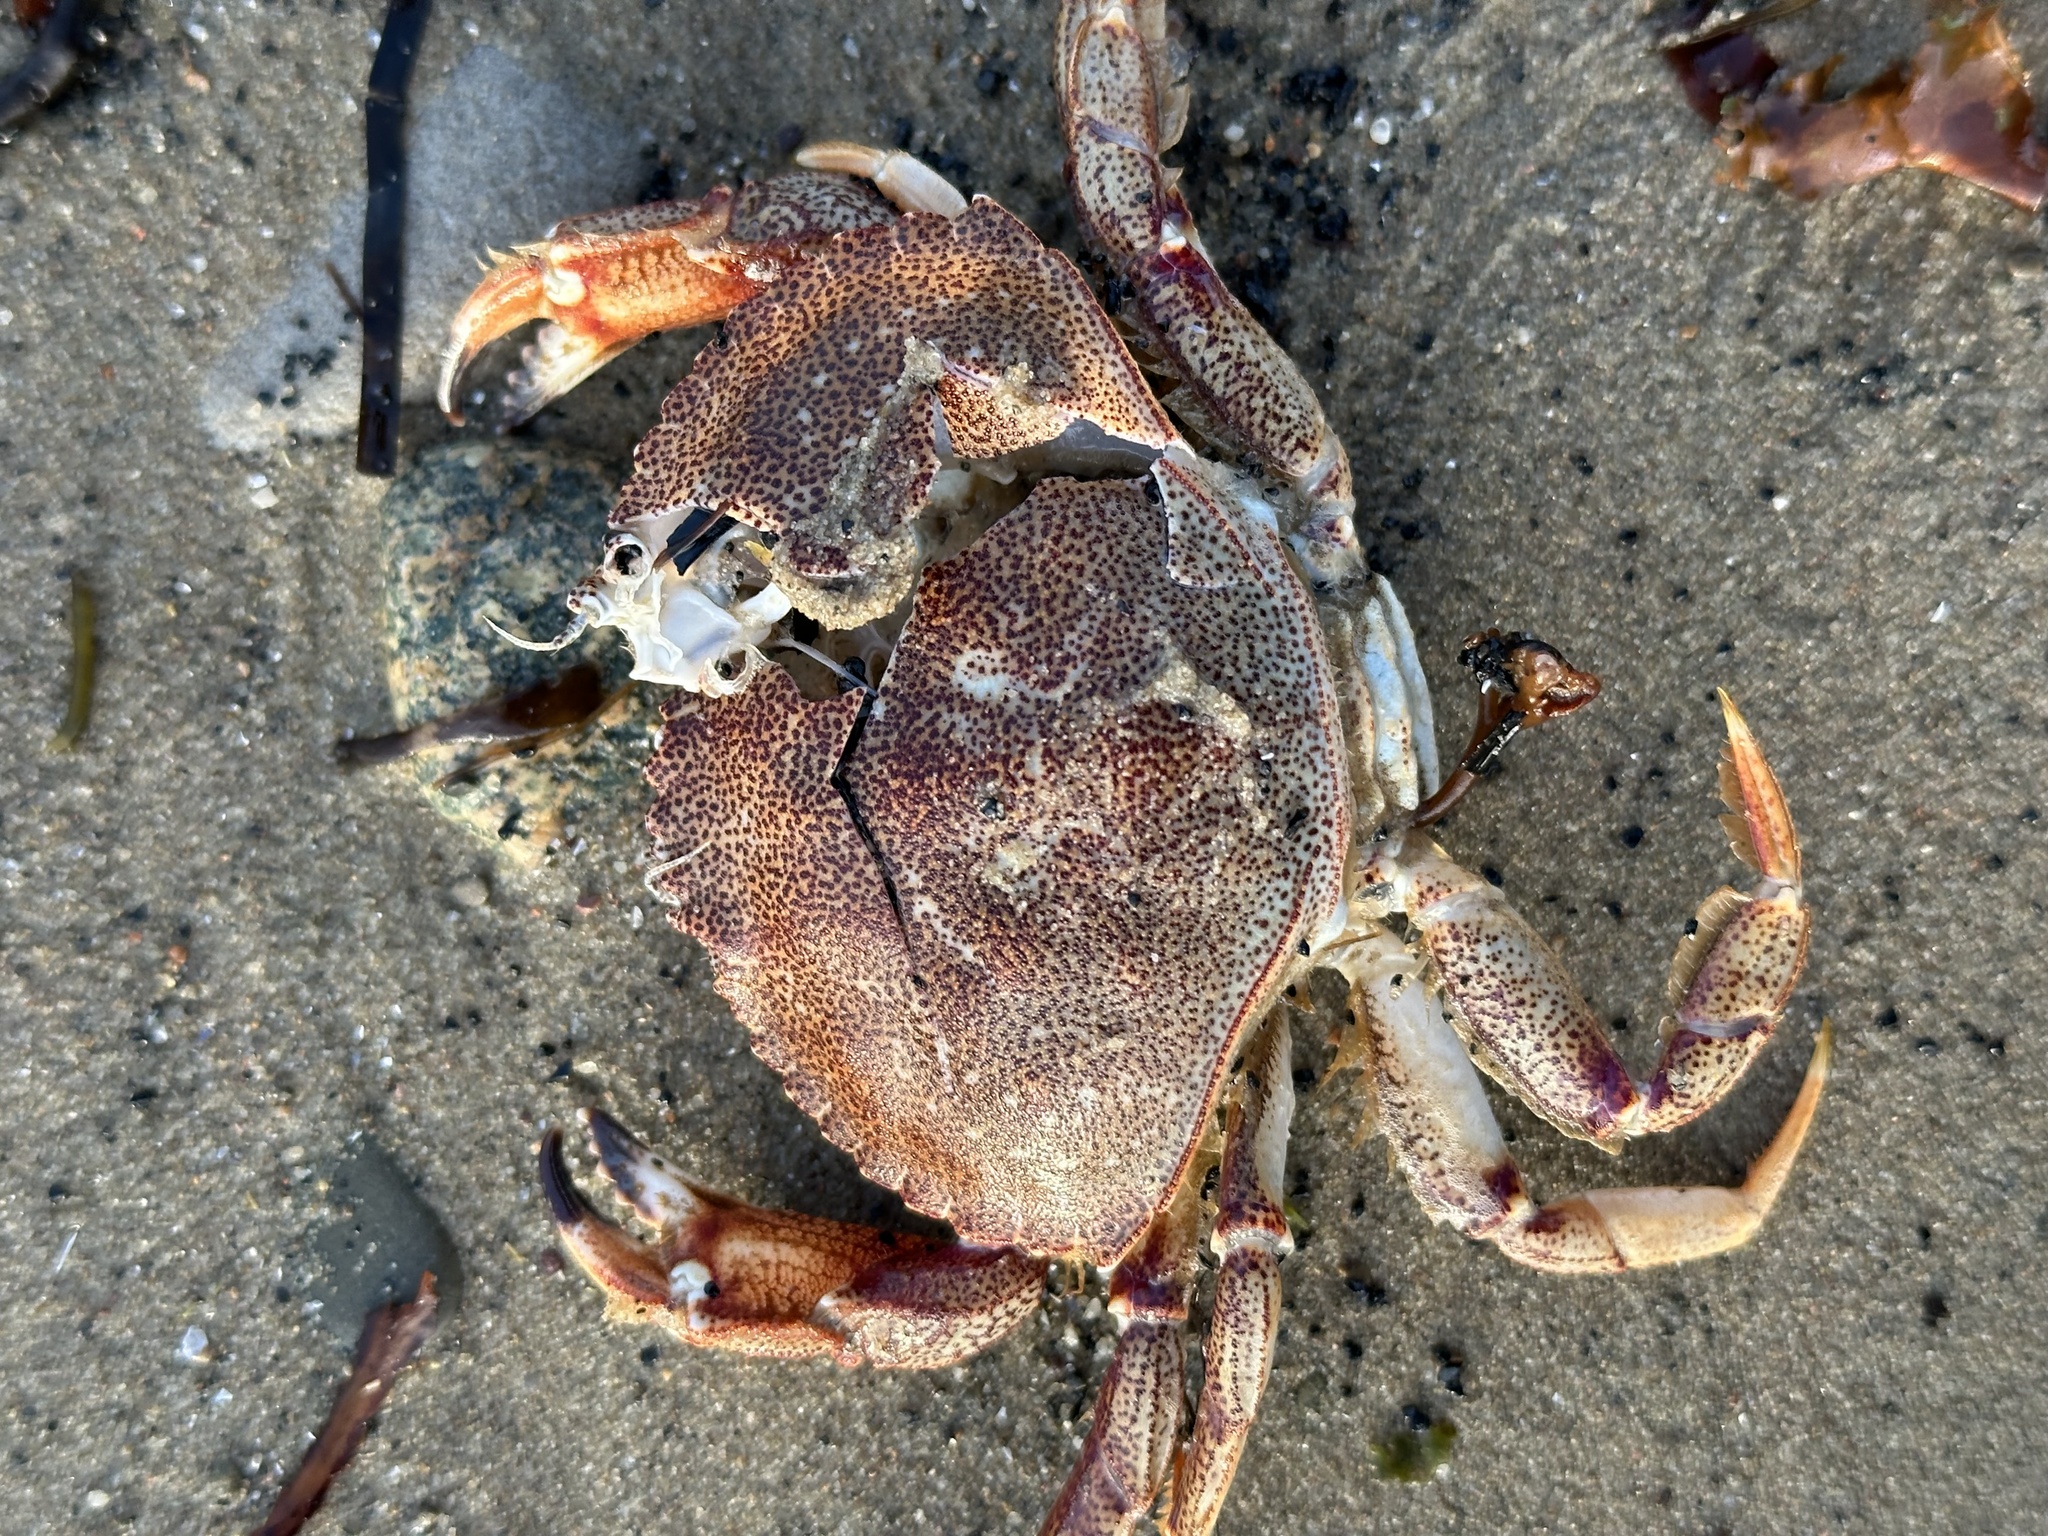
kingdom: Animalia
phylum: Arthropoda
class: Malacostraca
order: Decapoda
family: Cancridae
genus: Cancer
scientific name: Cancer irroratus
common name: Atlantic rock crab
